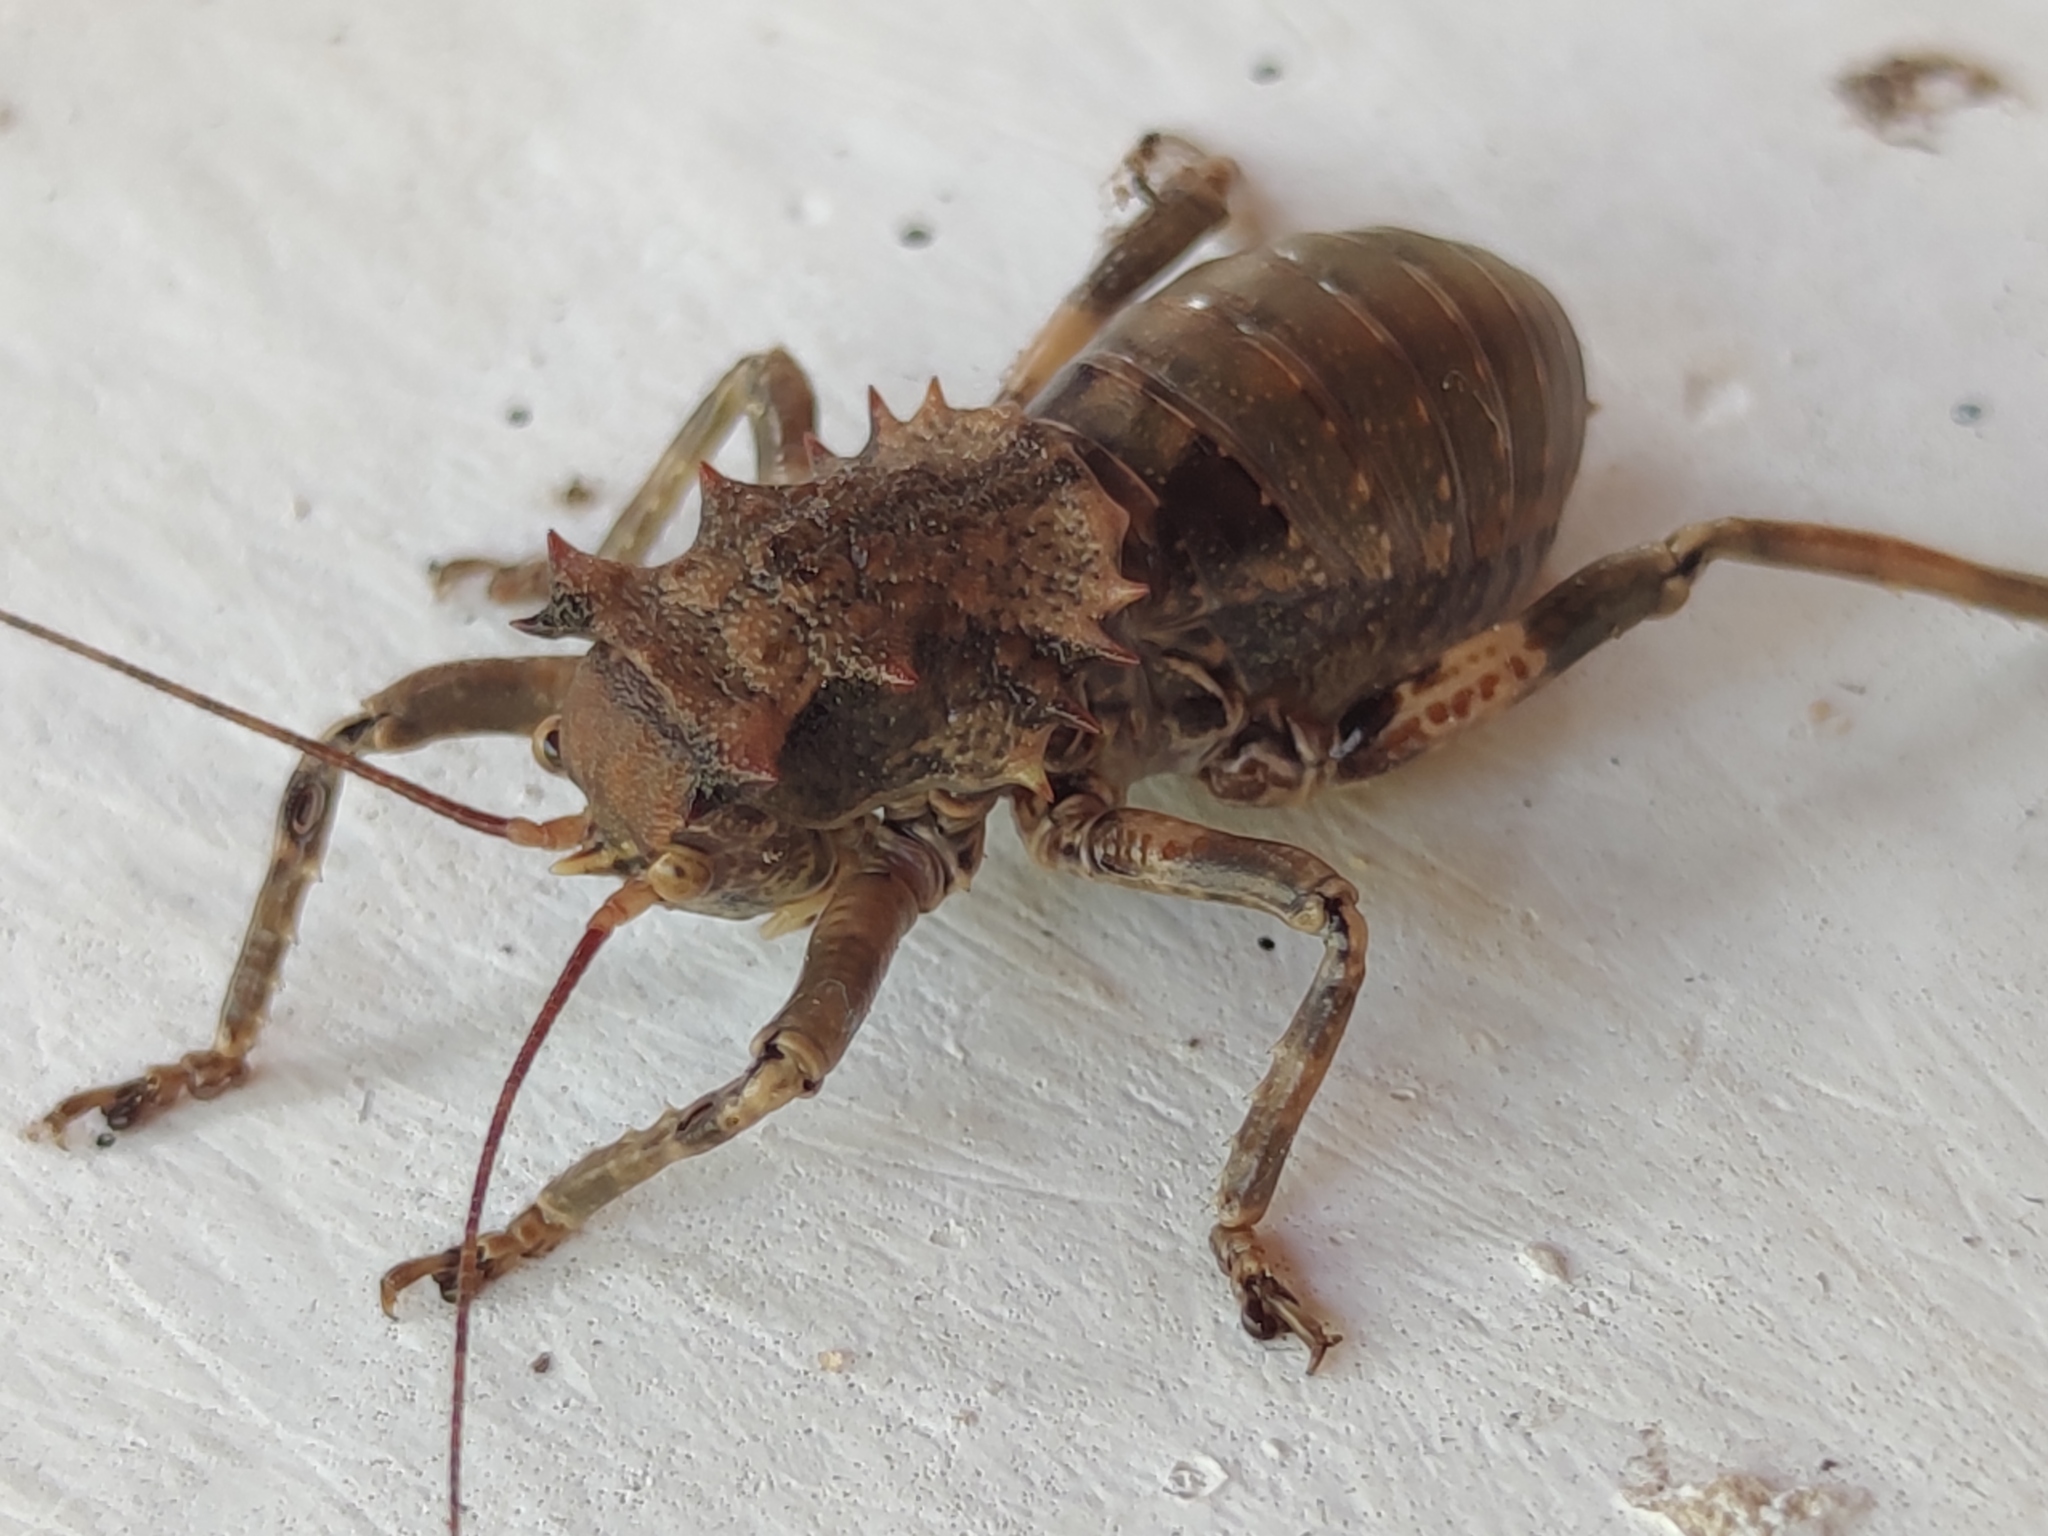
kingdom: Animalia
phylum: Arthropoda
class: Insecta
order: Orthoptera
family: Tettigoniidae
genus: Enyaliopsis
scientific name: Enyaliopsis bloyeti
